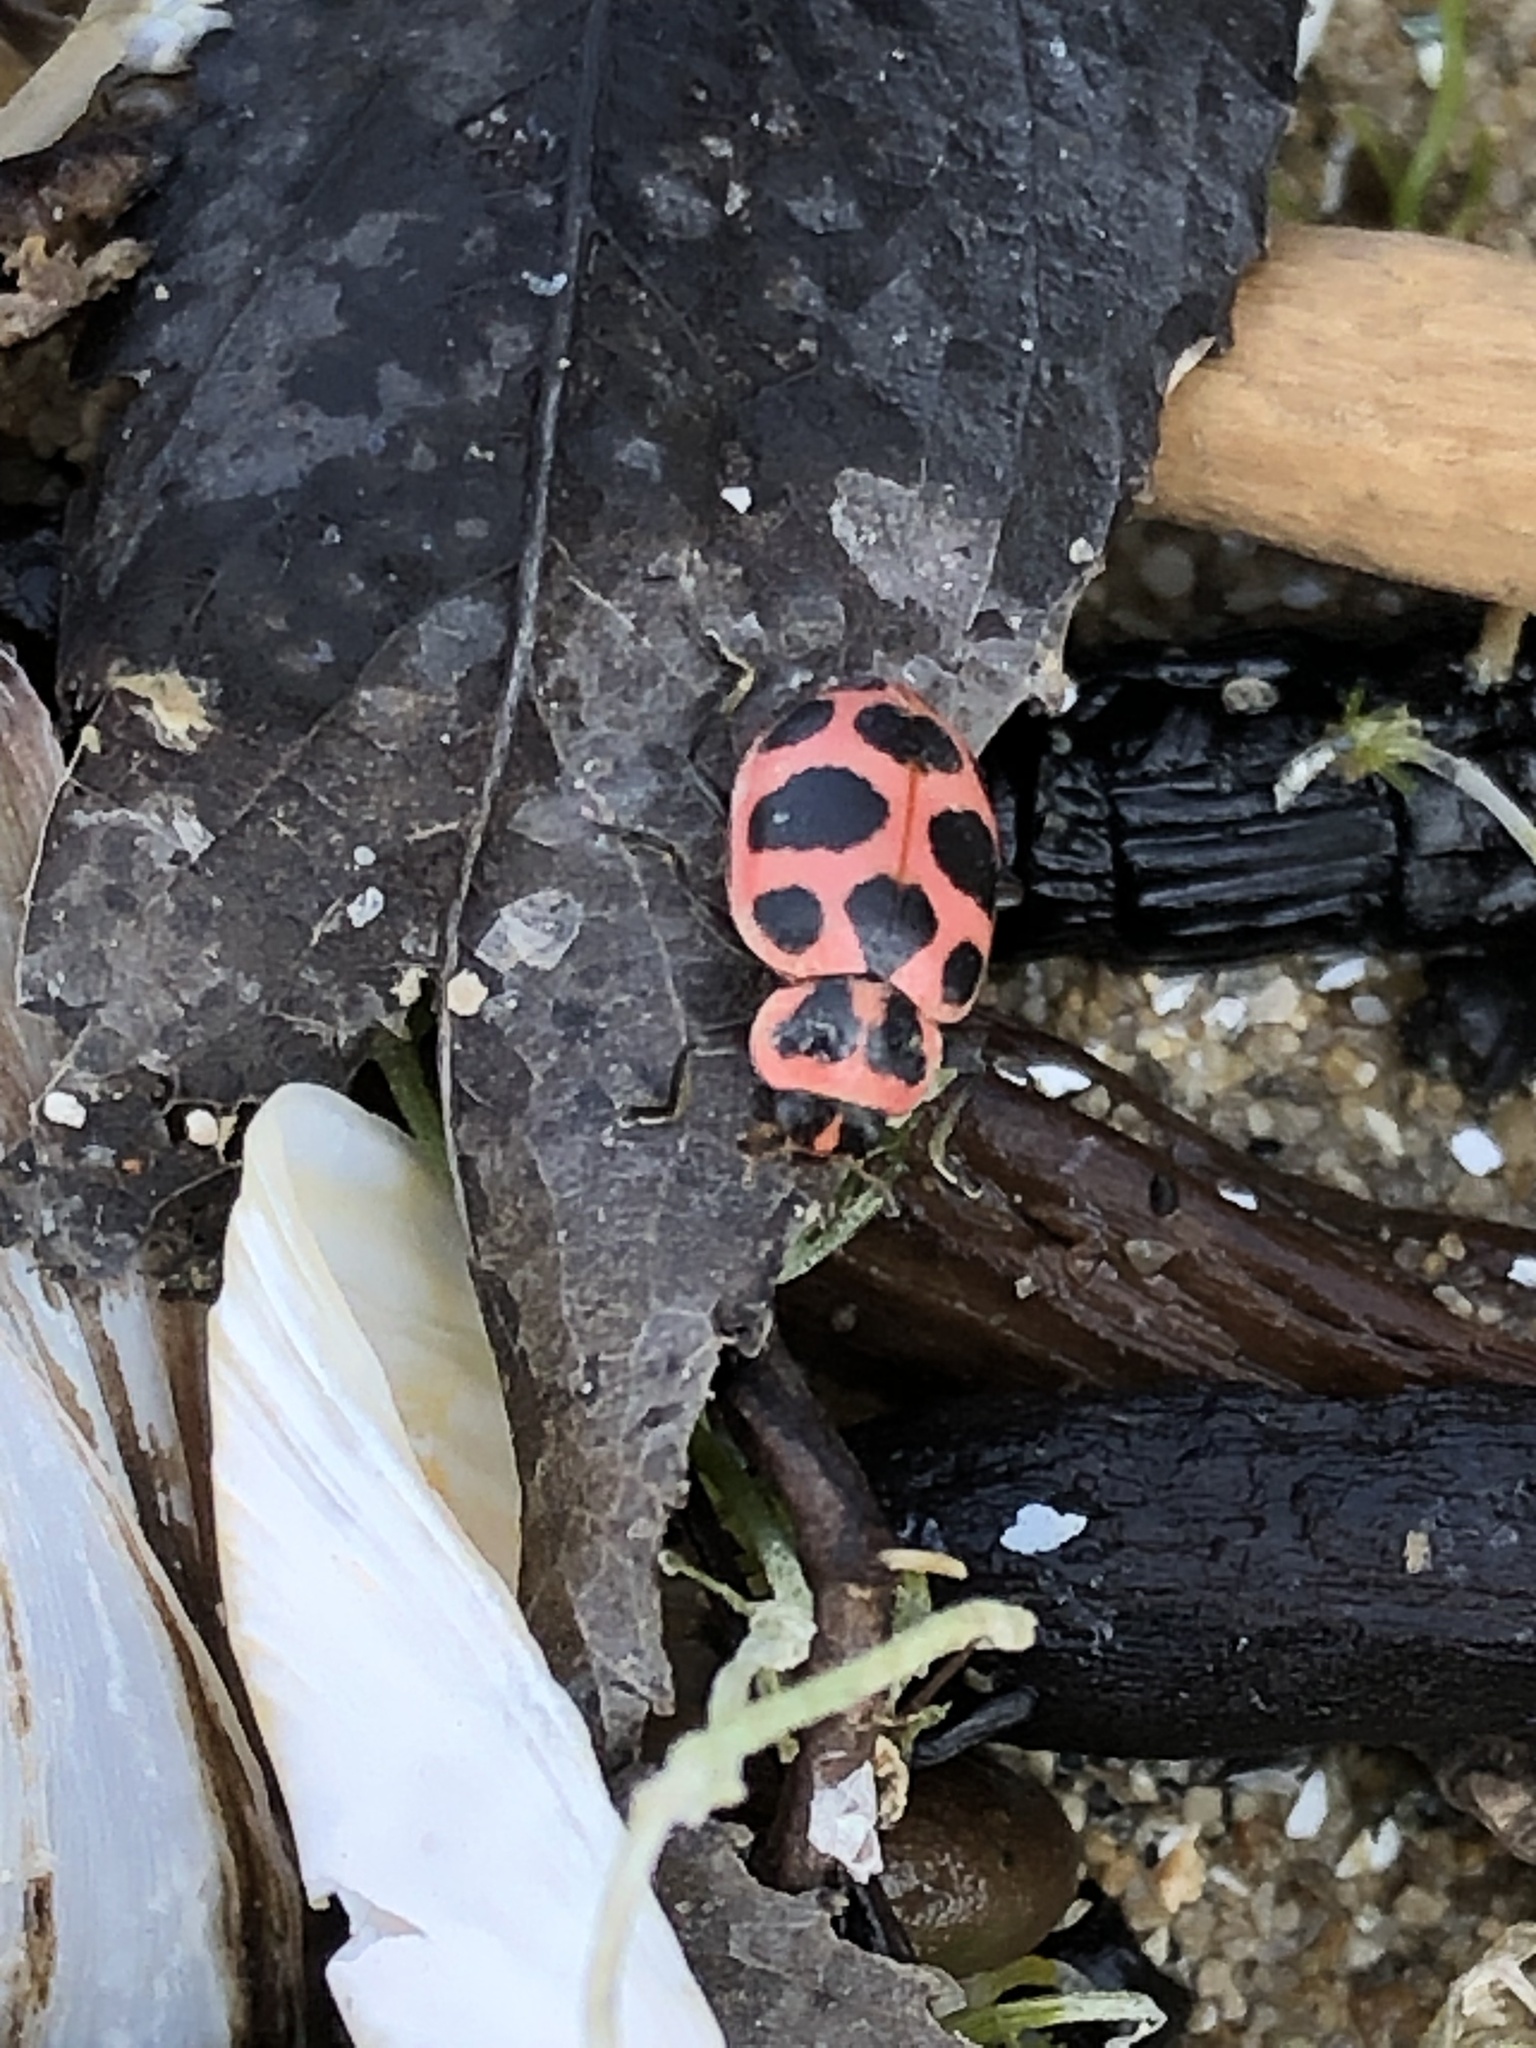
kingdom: Animalia
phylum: Arthropoda
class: Insecta
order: Coleoptera
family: Coccinellidae
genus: Coleomegilla
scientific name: Coleomegilla maculata
